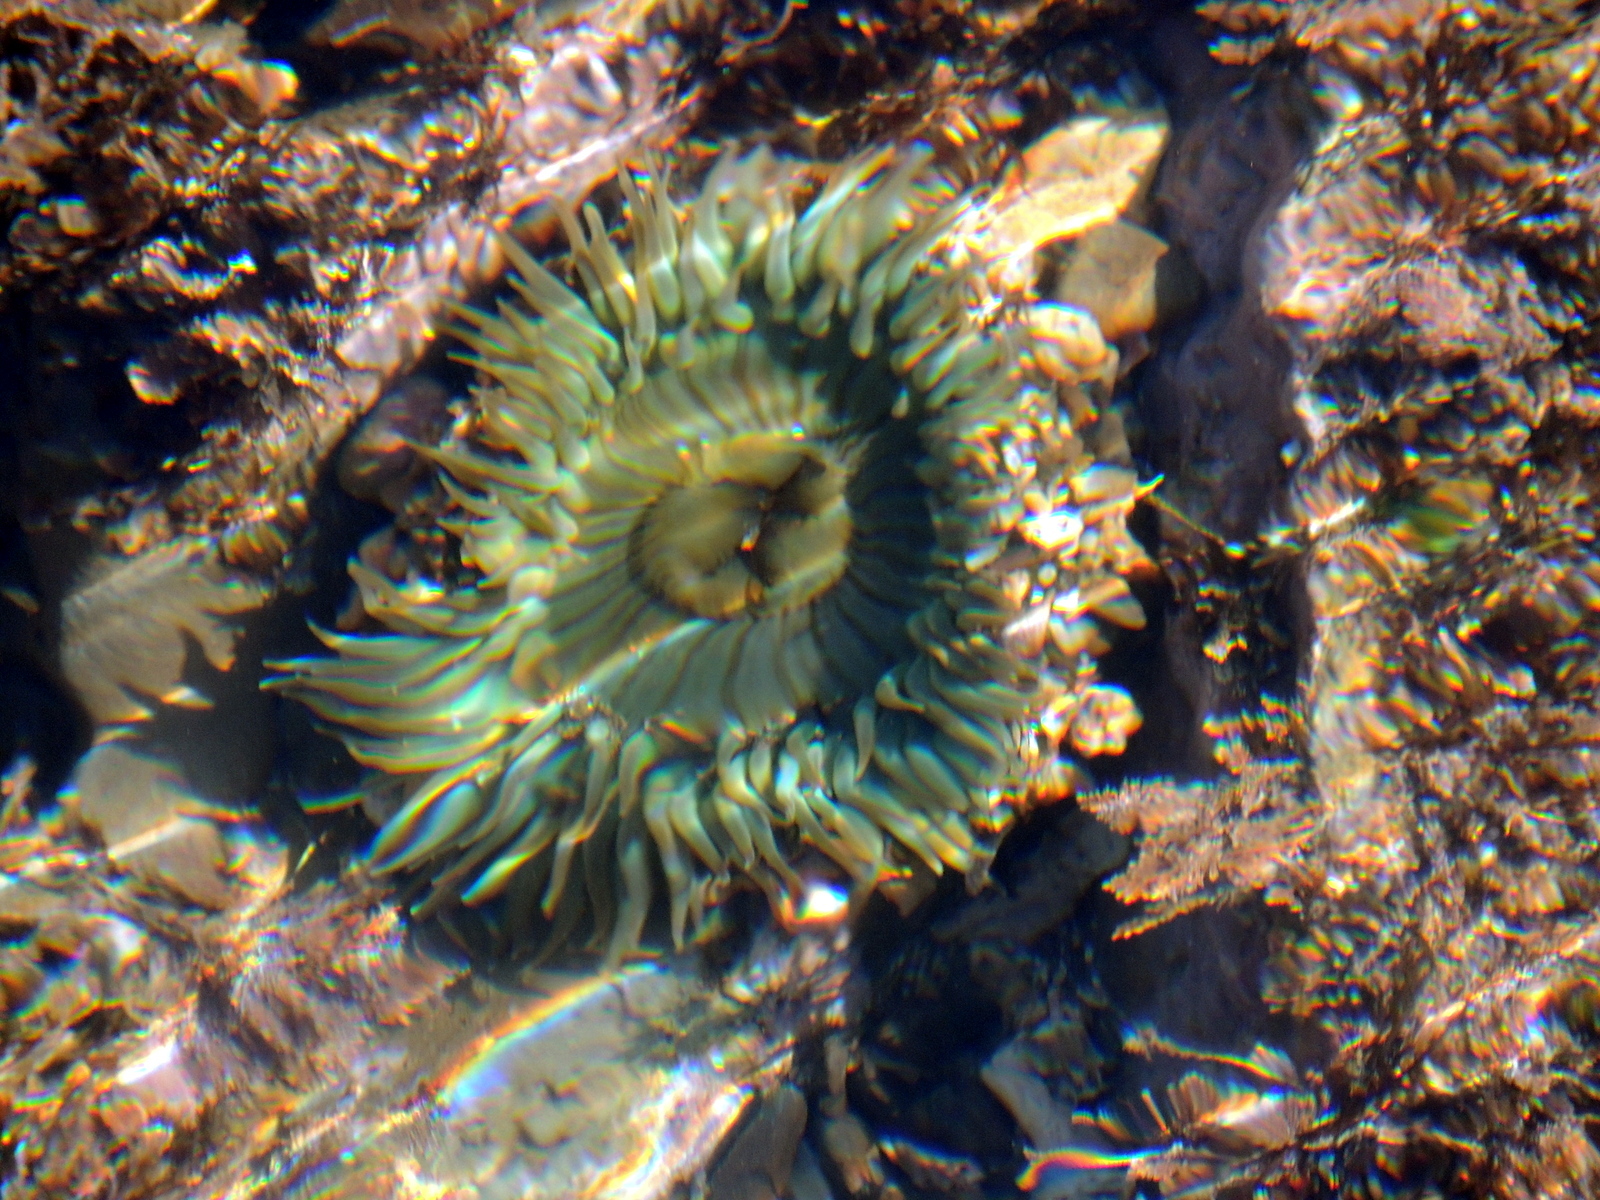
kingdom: Animalia
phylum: Cnidaria
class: Anthozoa
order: Actiniaria
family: Actiniidae
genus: Anthopleura
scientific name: Anthopleura sola
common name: Sun anemone
